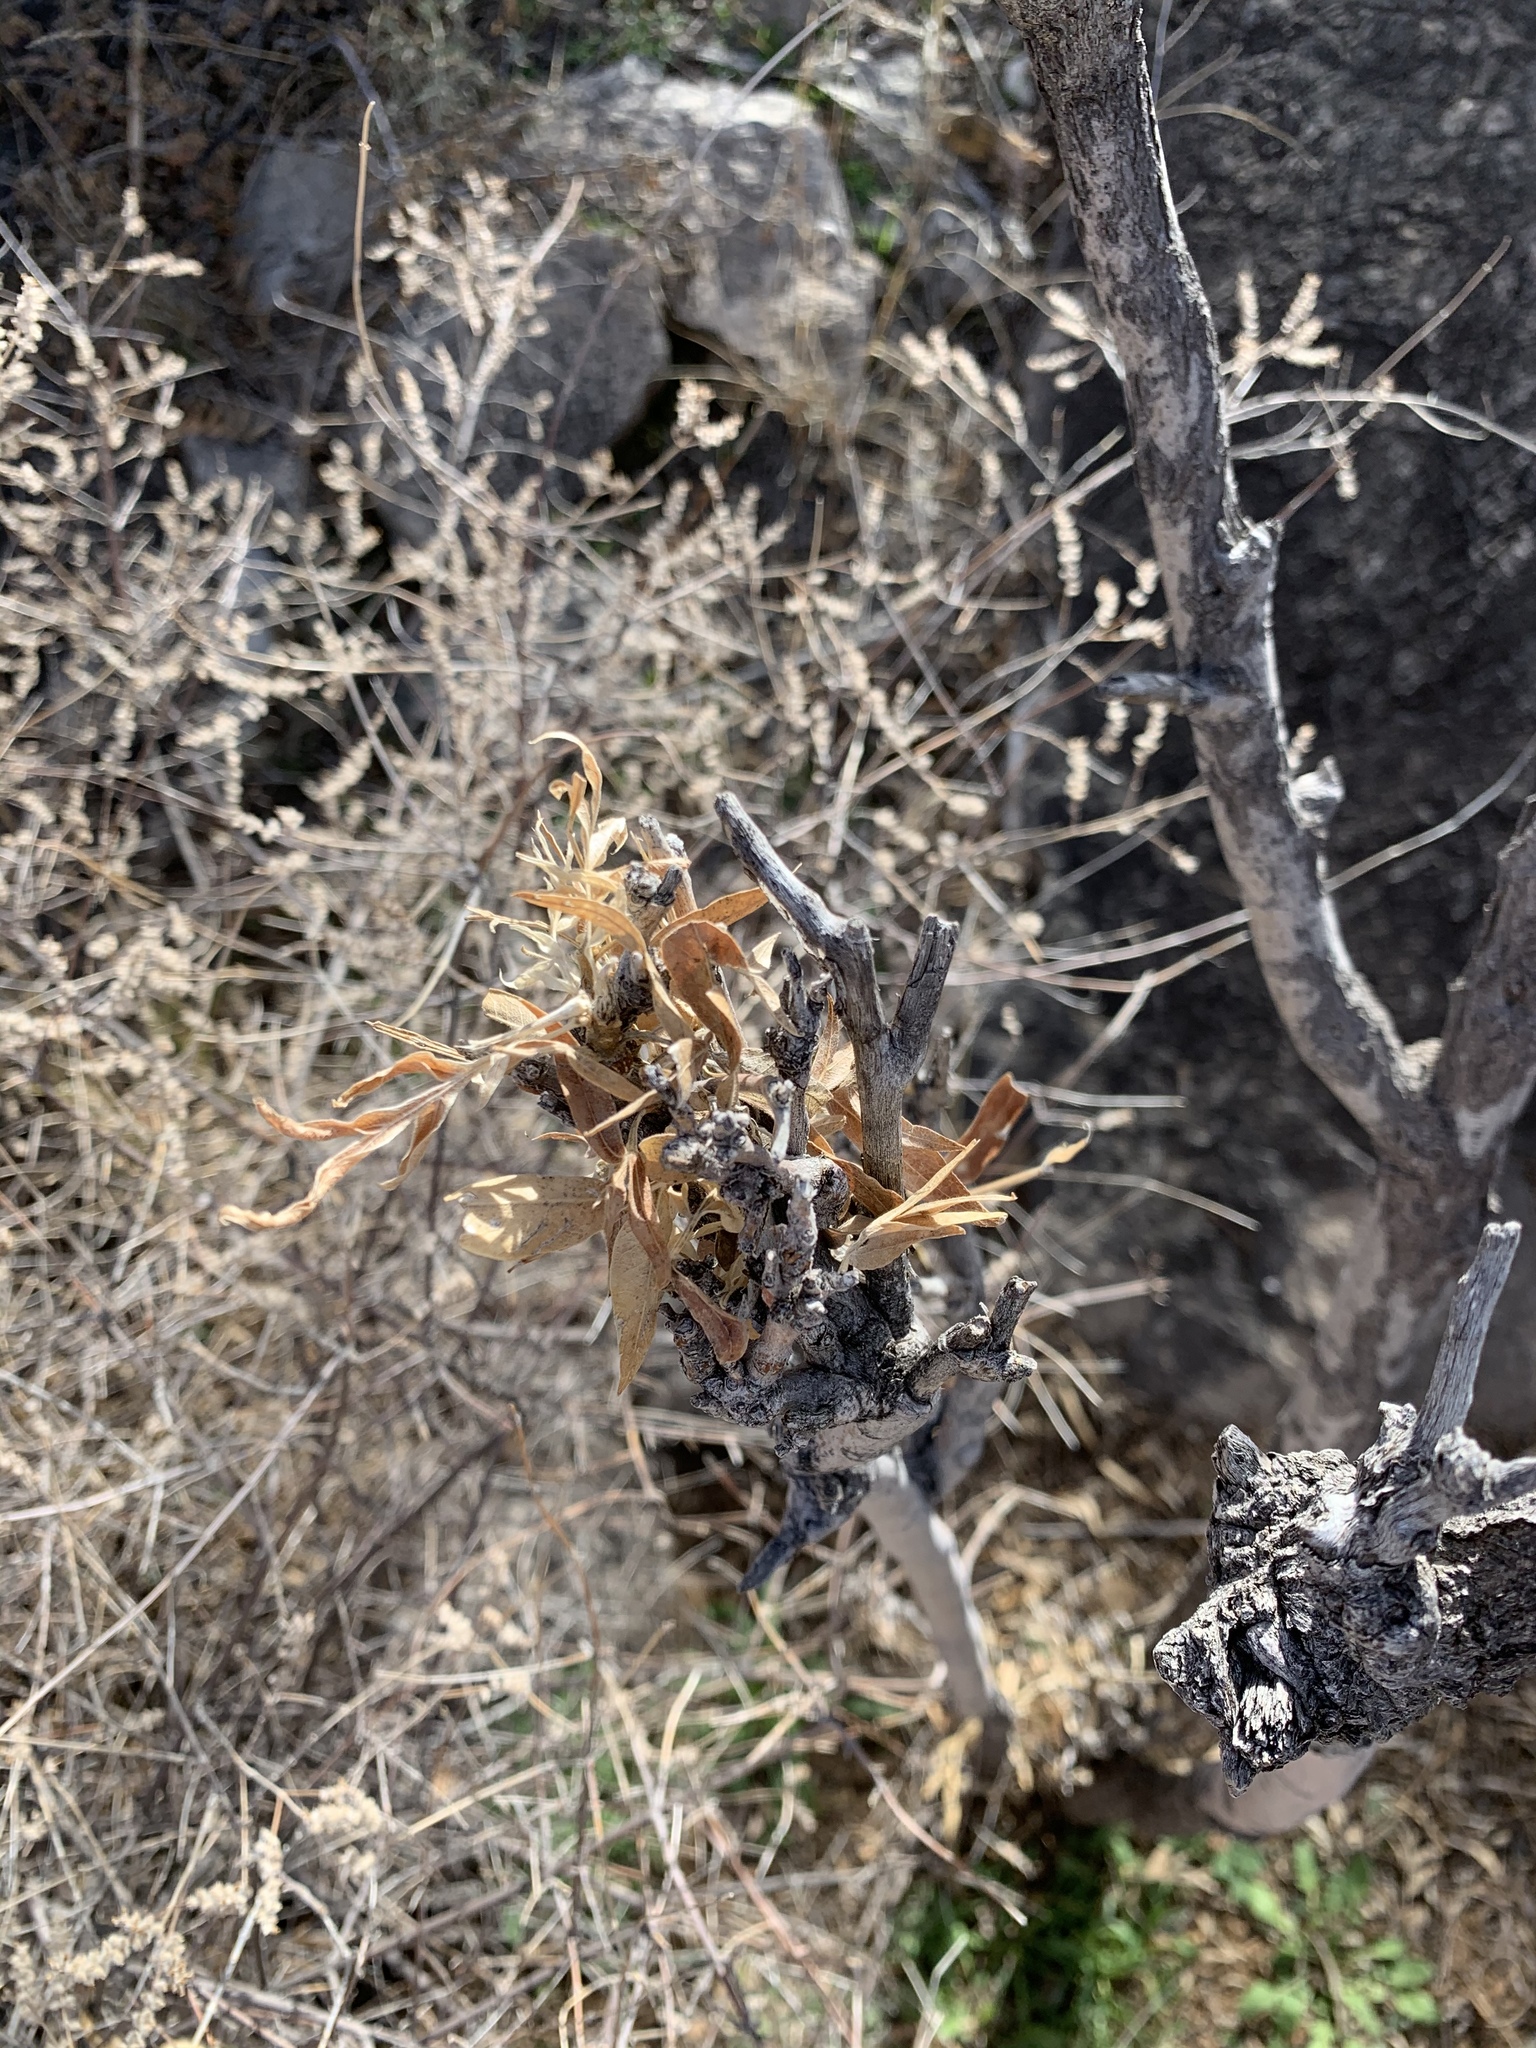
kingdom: Plantae
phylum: Tracheophyta
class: Magnoliopsida
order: Sapindales
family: Sapindaceae
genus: Sapindus
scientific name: Sapindus drummondii
